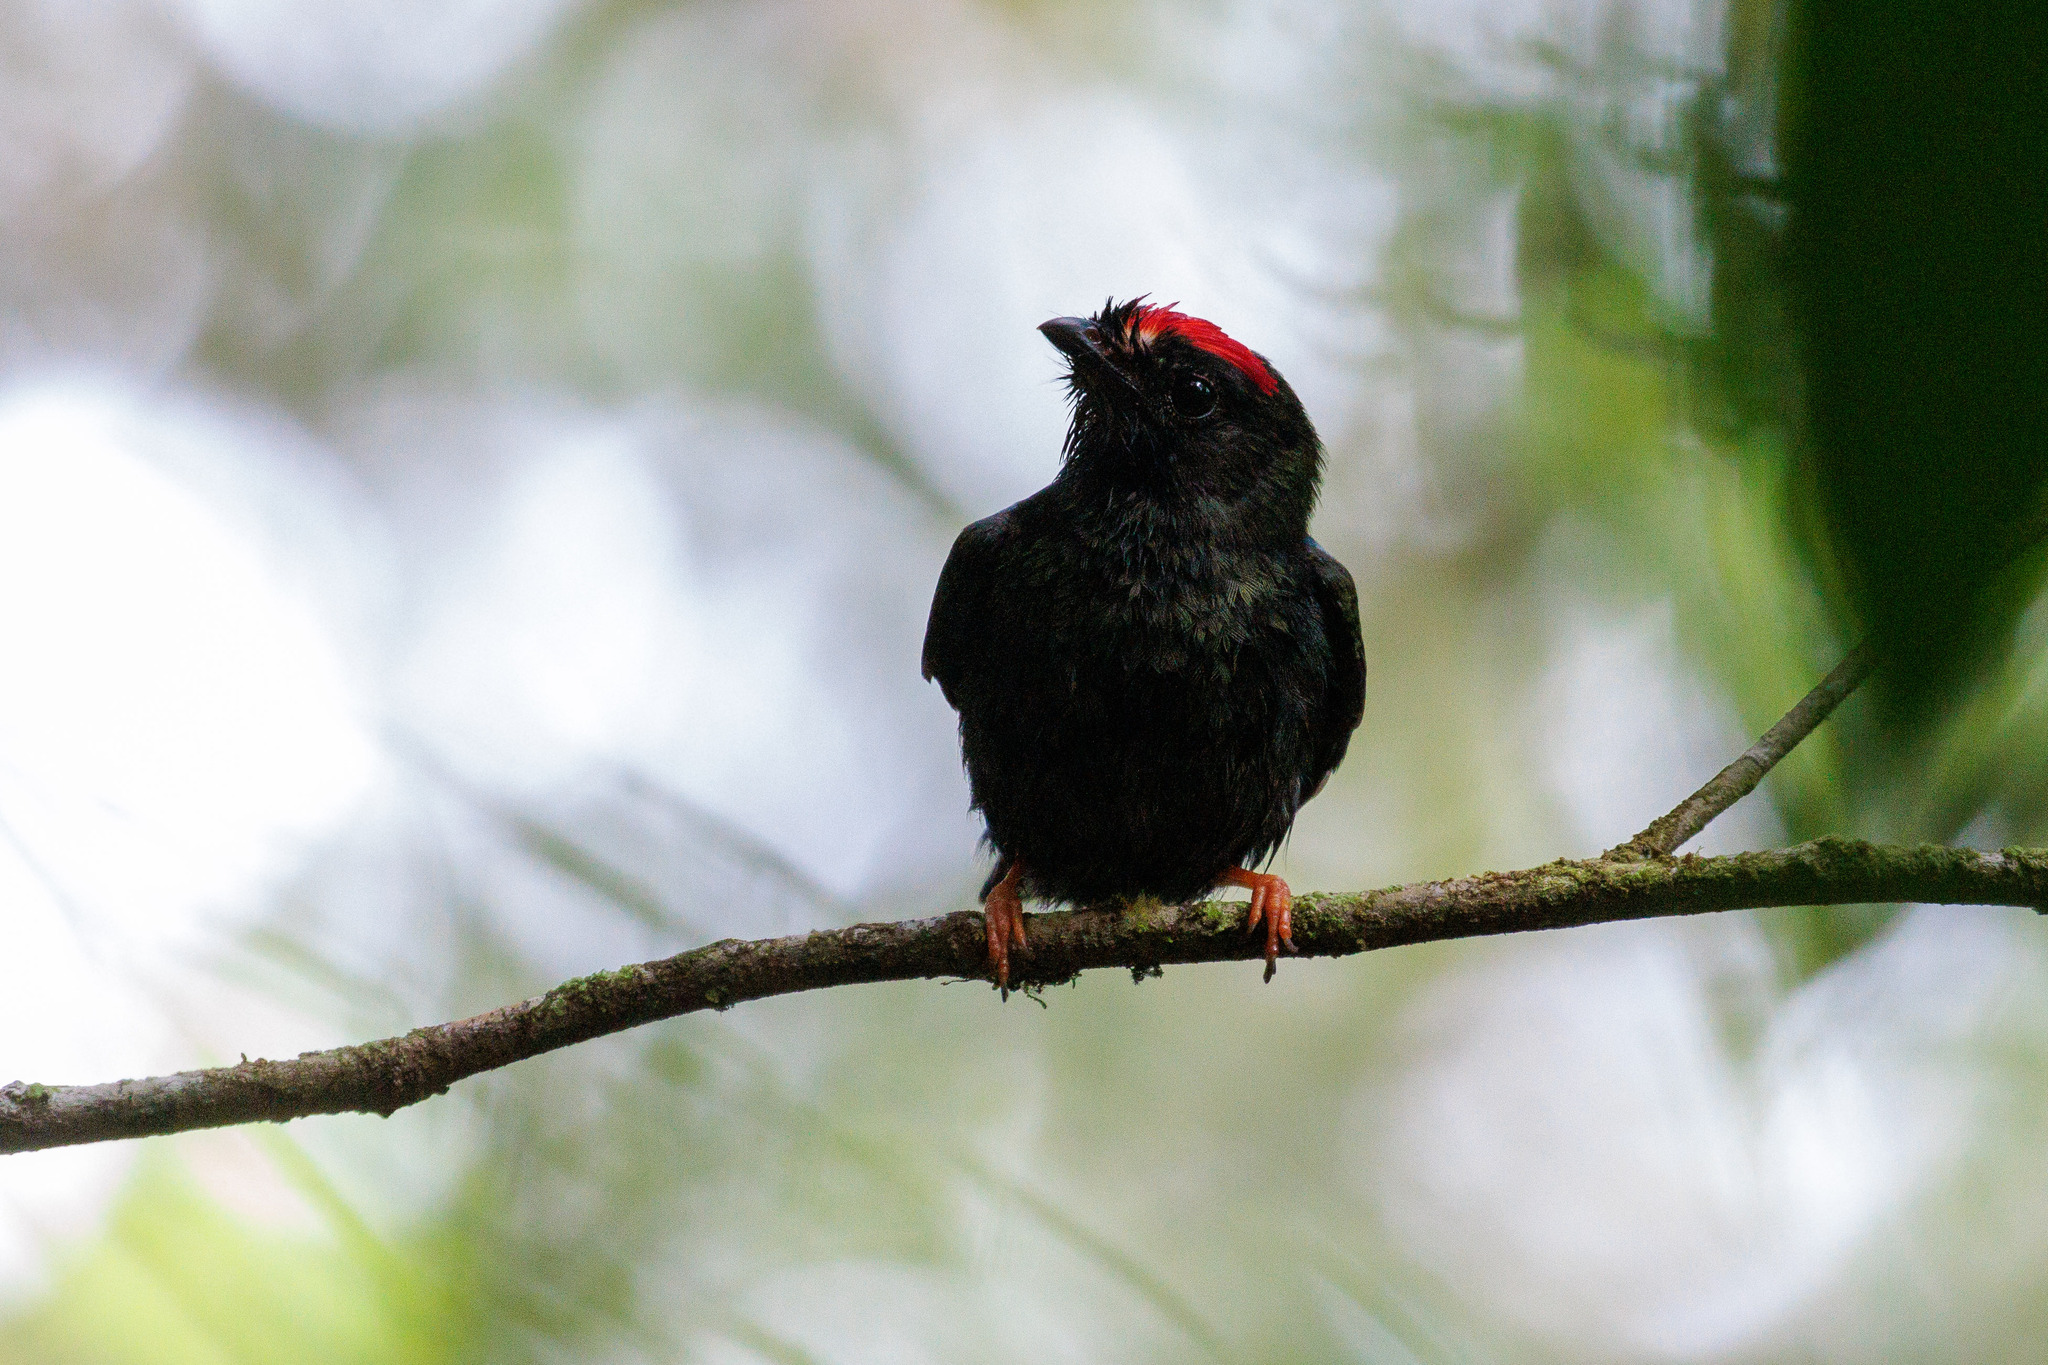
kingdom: Animalia
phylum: Chordata
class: Aves
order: Passeriformes
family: Pipridae
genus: Chiroxiphia
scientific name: Chiroxiphia pareola
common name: Blue-backed manakin
